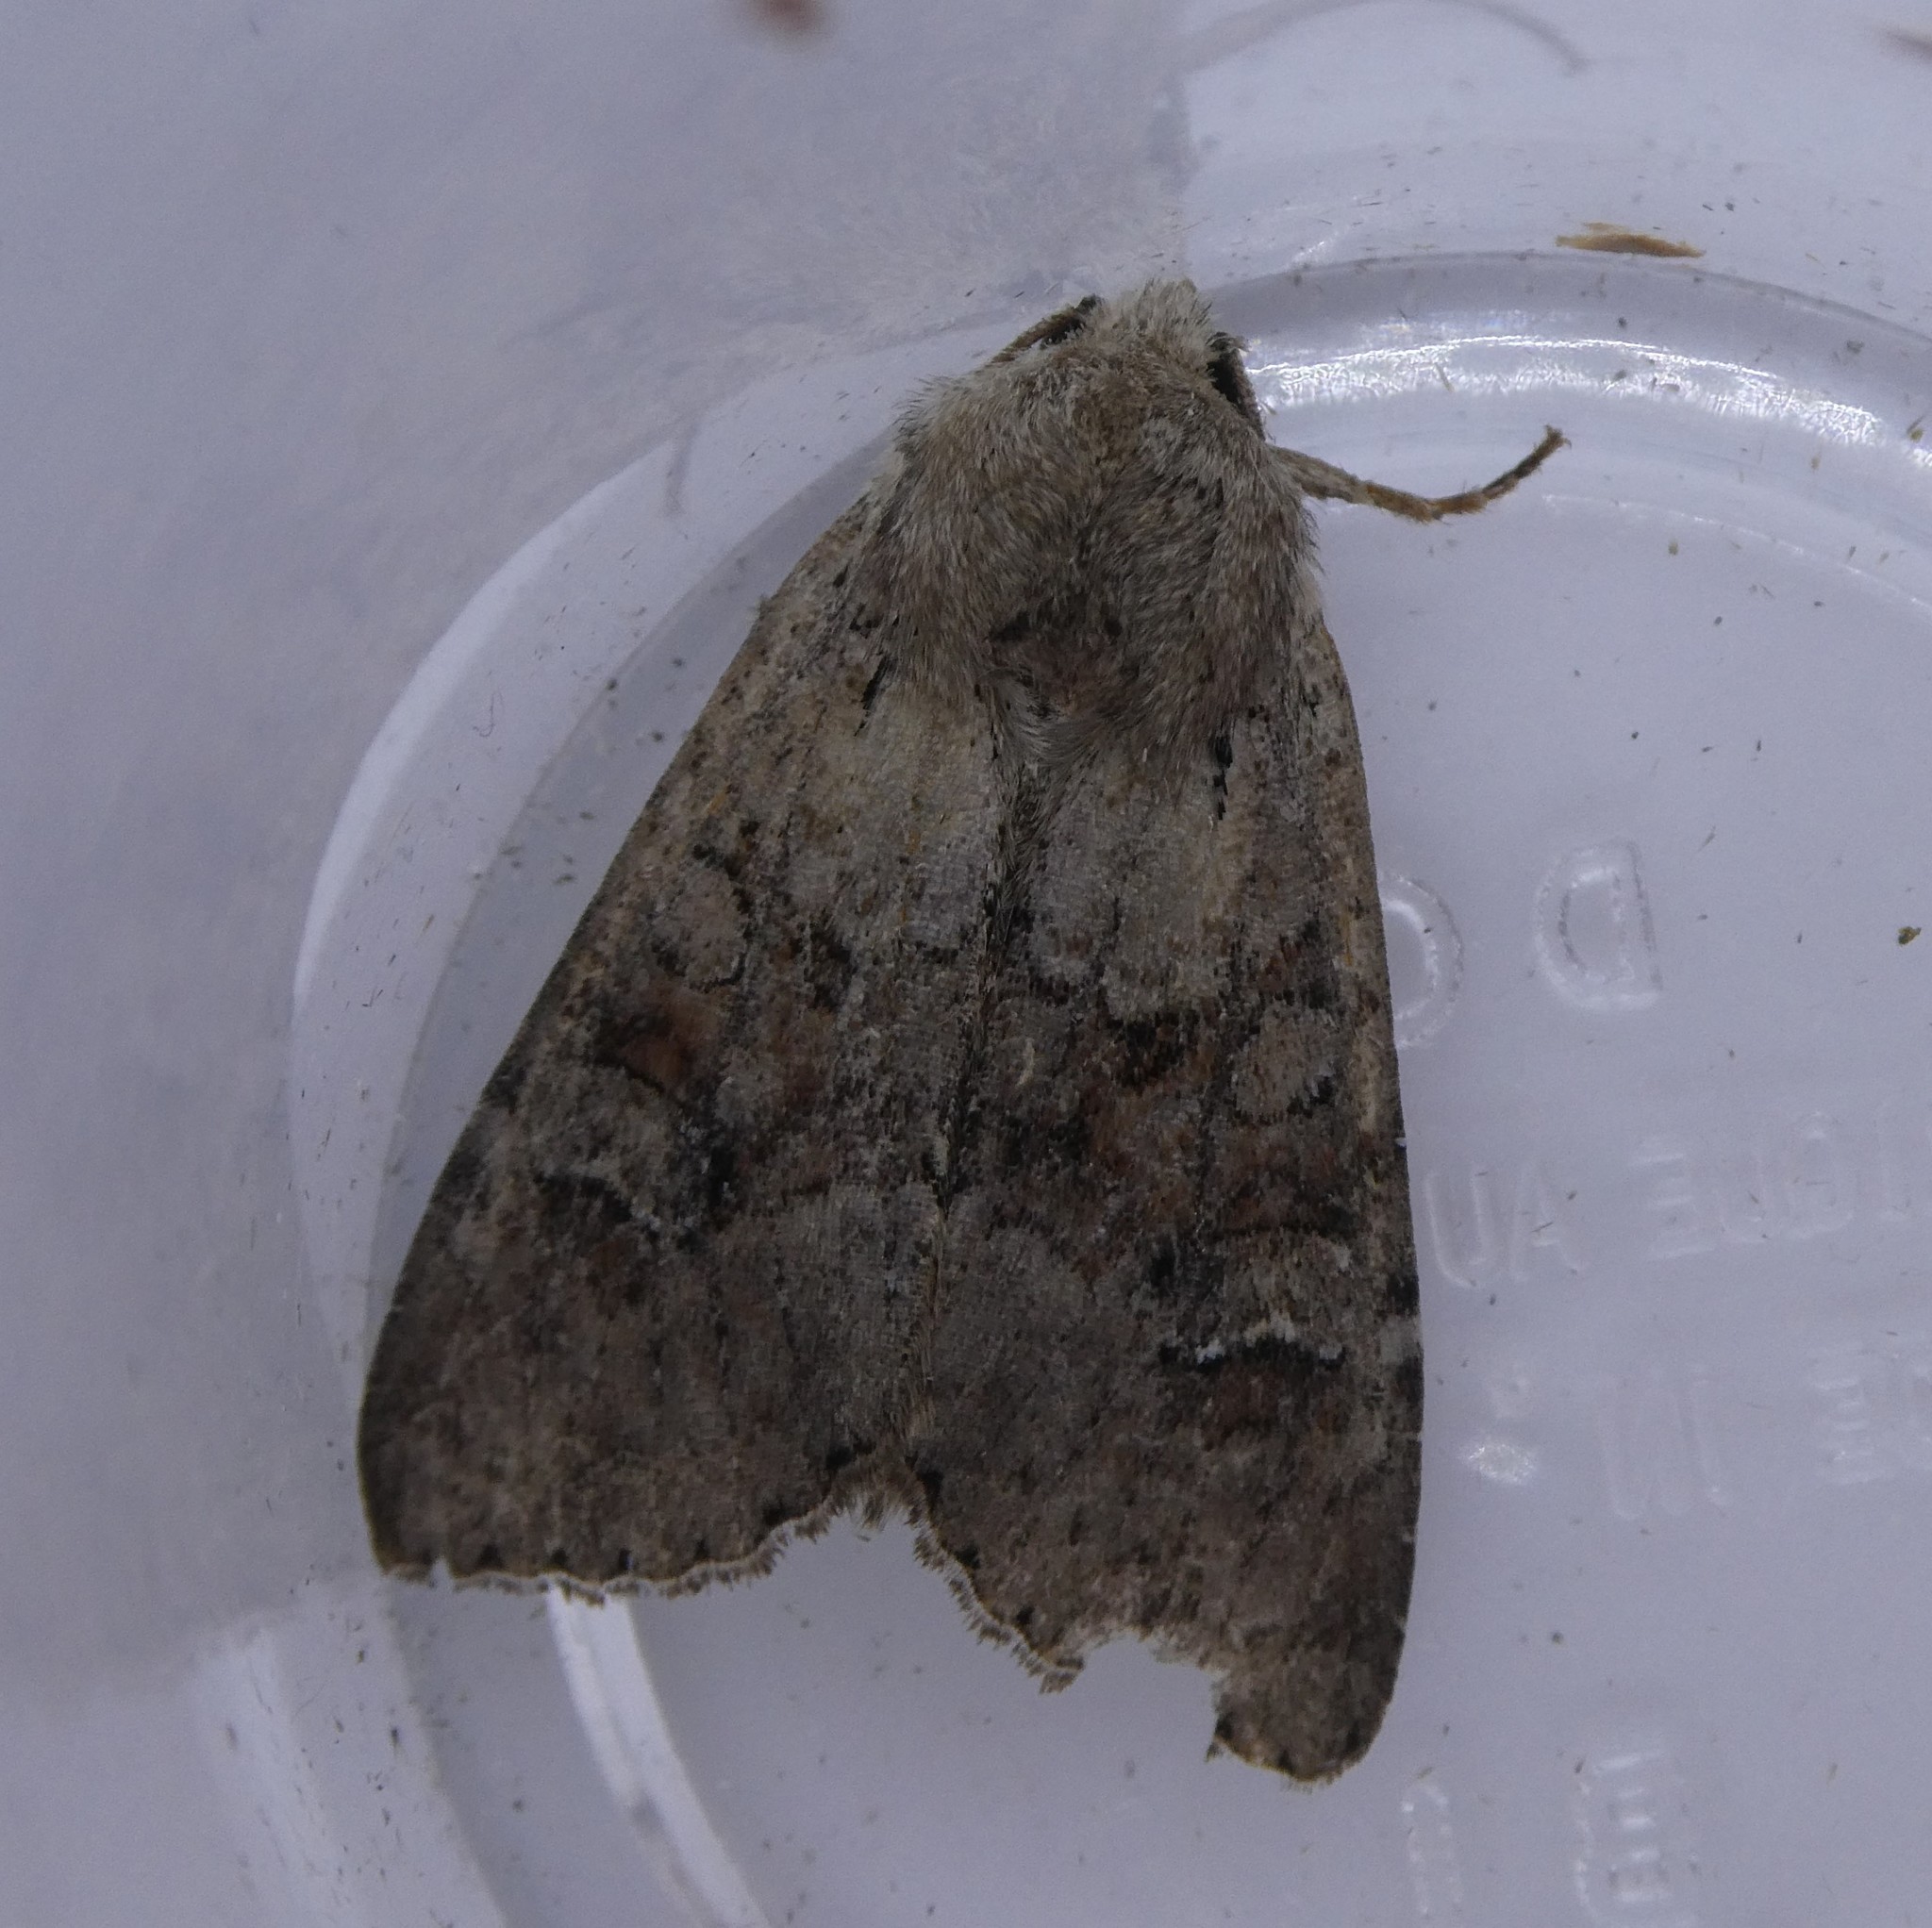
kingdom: Animalia
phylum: Arthropoda
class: Insecta
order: Lepidoptera
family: Noctuidae
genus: Apamea
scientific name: Apamea sordens
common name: Rustic shoulder-knot
